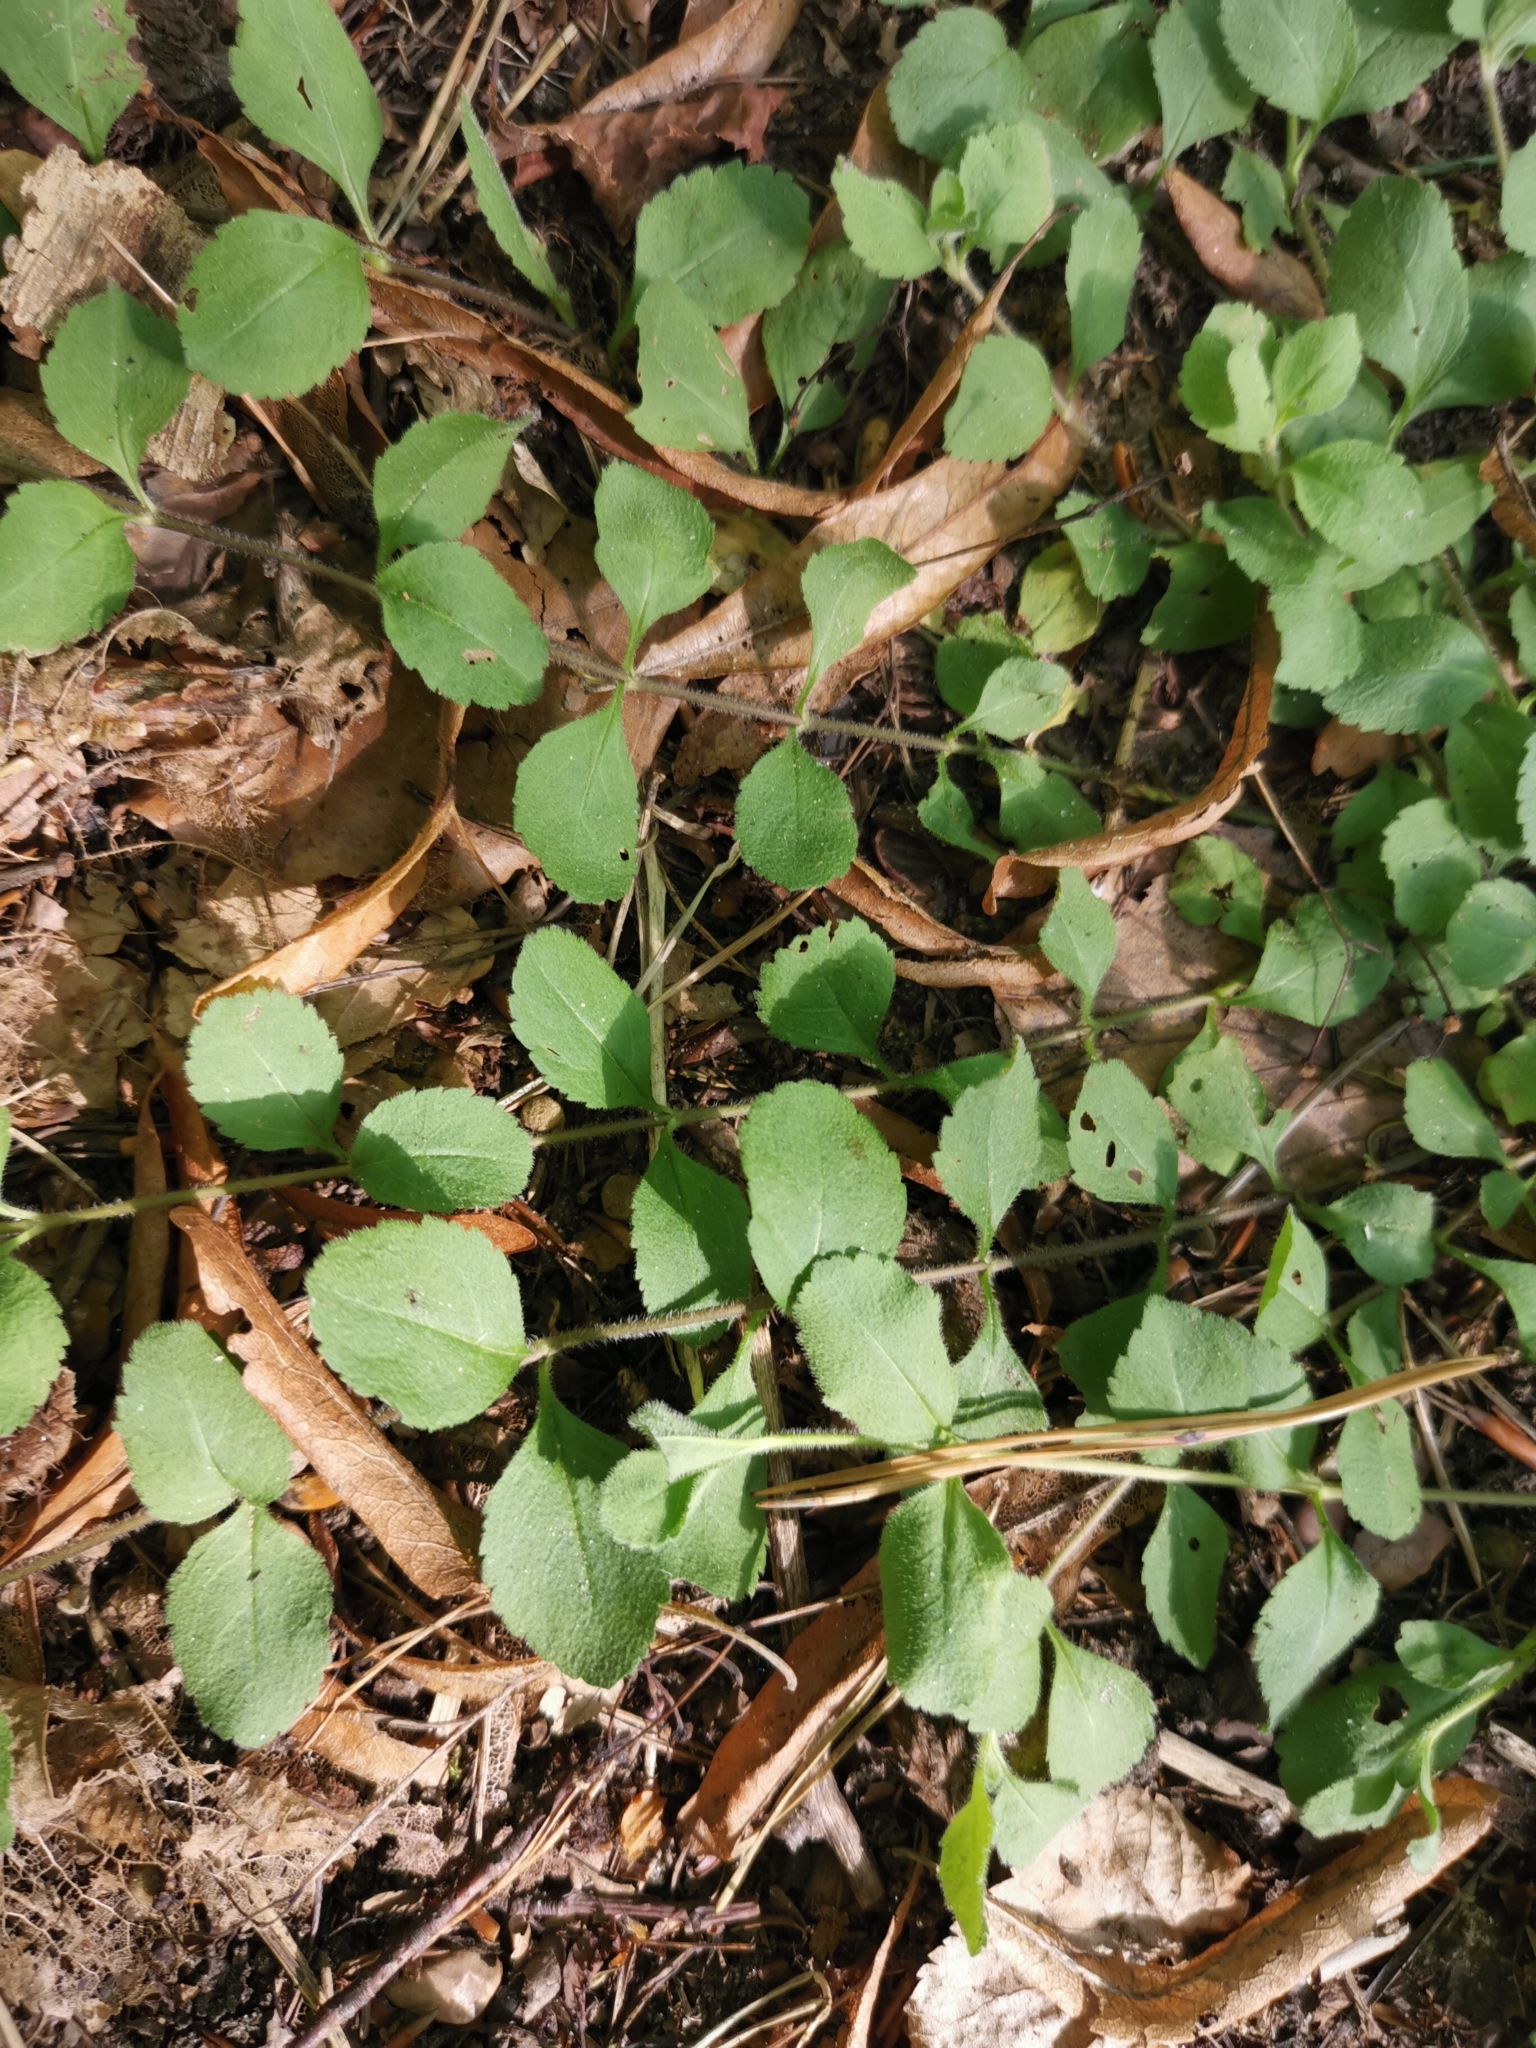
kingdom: Plantae
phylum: Tracheophyta
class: Magnoliopsida
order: Lamiales
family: Plantaginaceae
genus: Veronica
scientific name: Veronica officinalis
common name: Common speedwell
